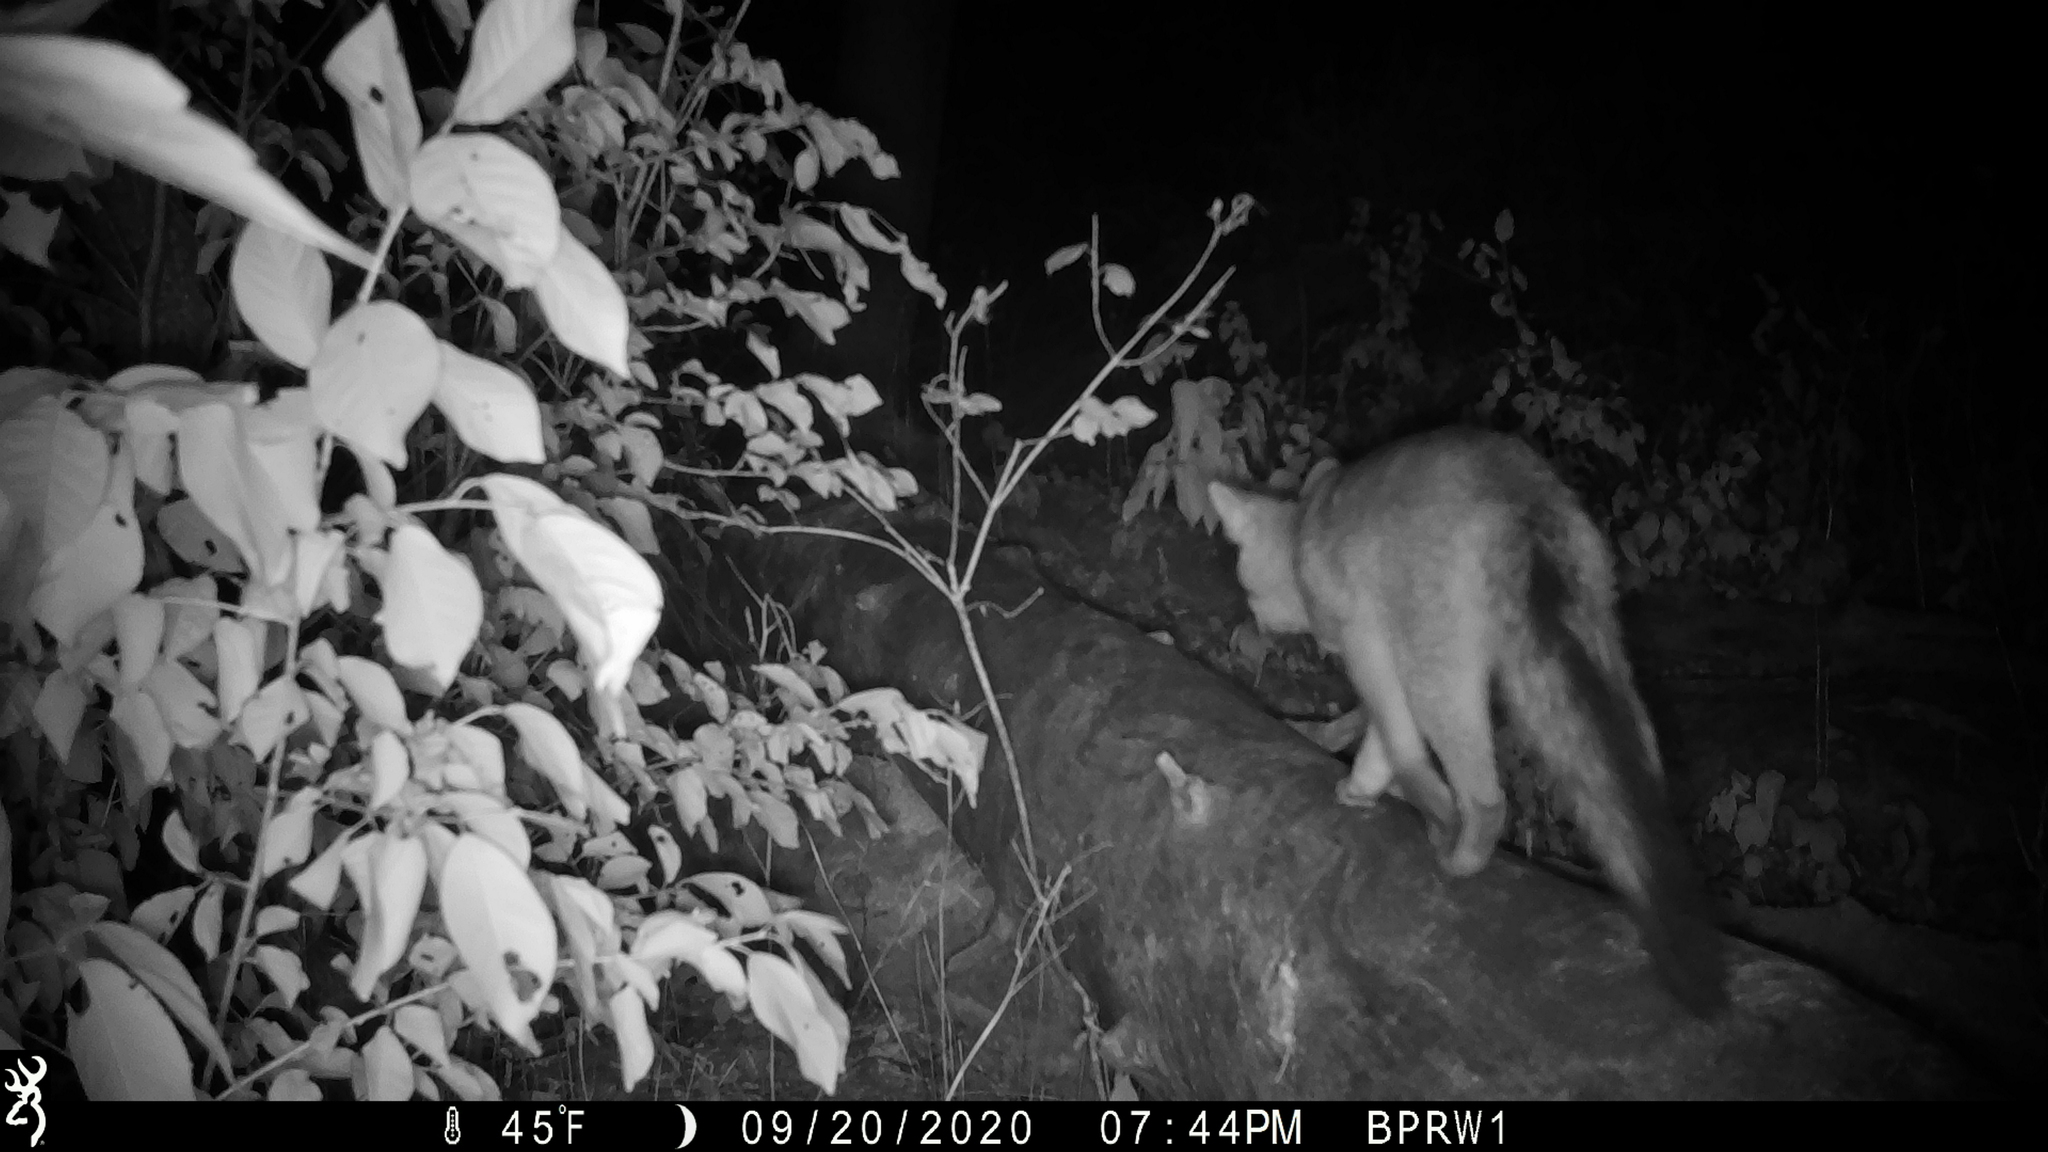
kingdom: Animalia
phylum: Chordata
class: Mammalia
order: Carnivora
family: Canidae
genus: Urocyon
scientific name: Urocyon cinereoargenteus
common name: Gray fox
